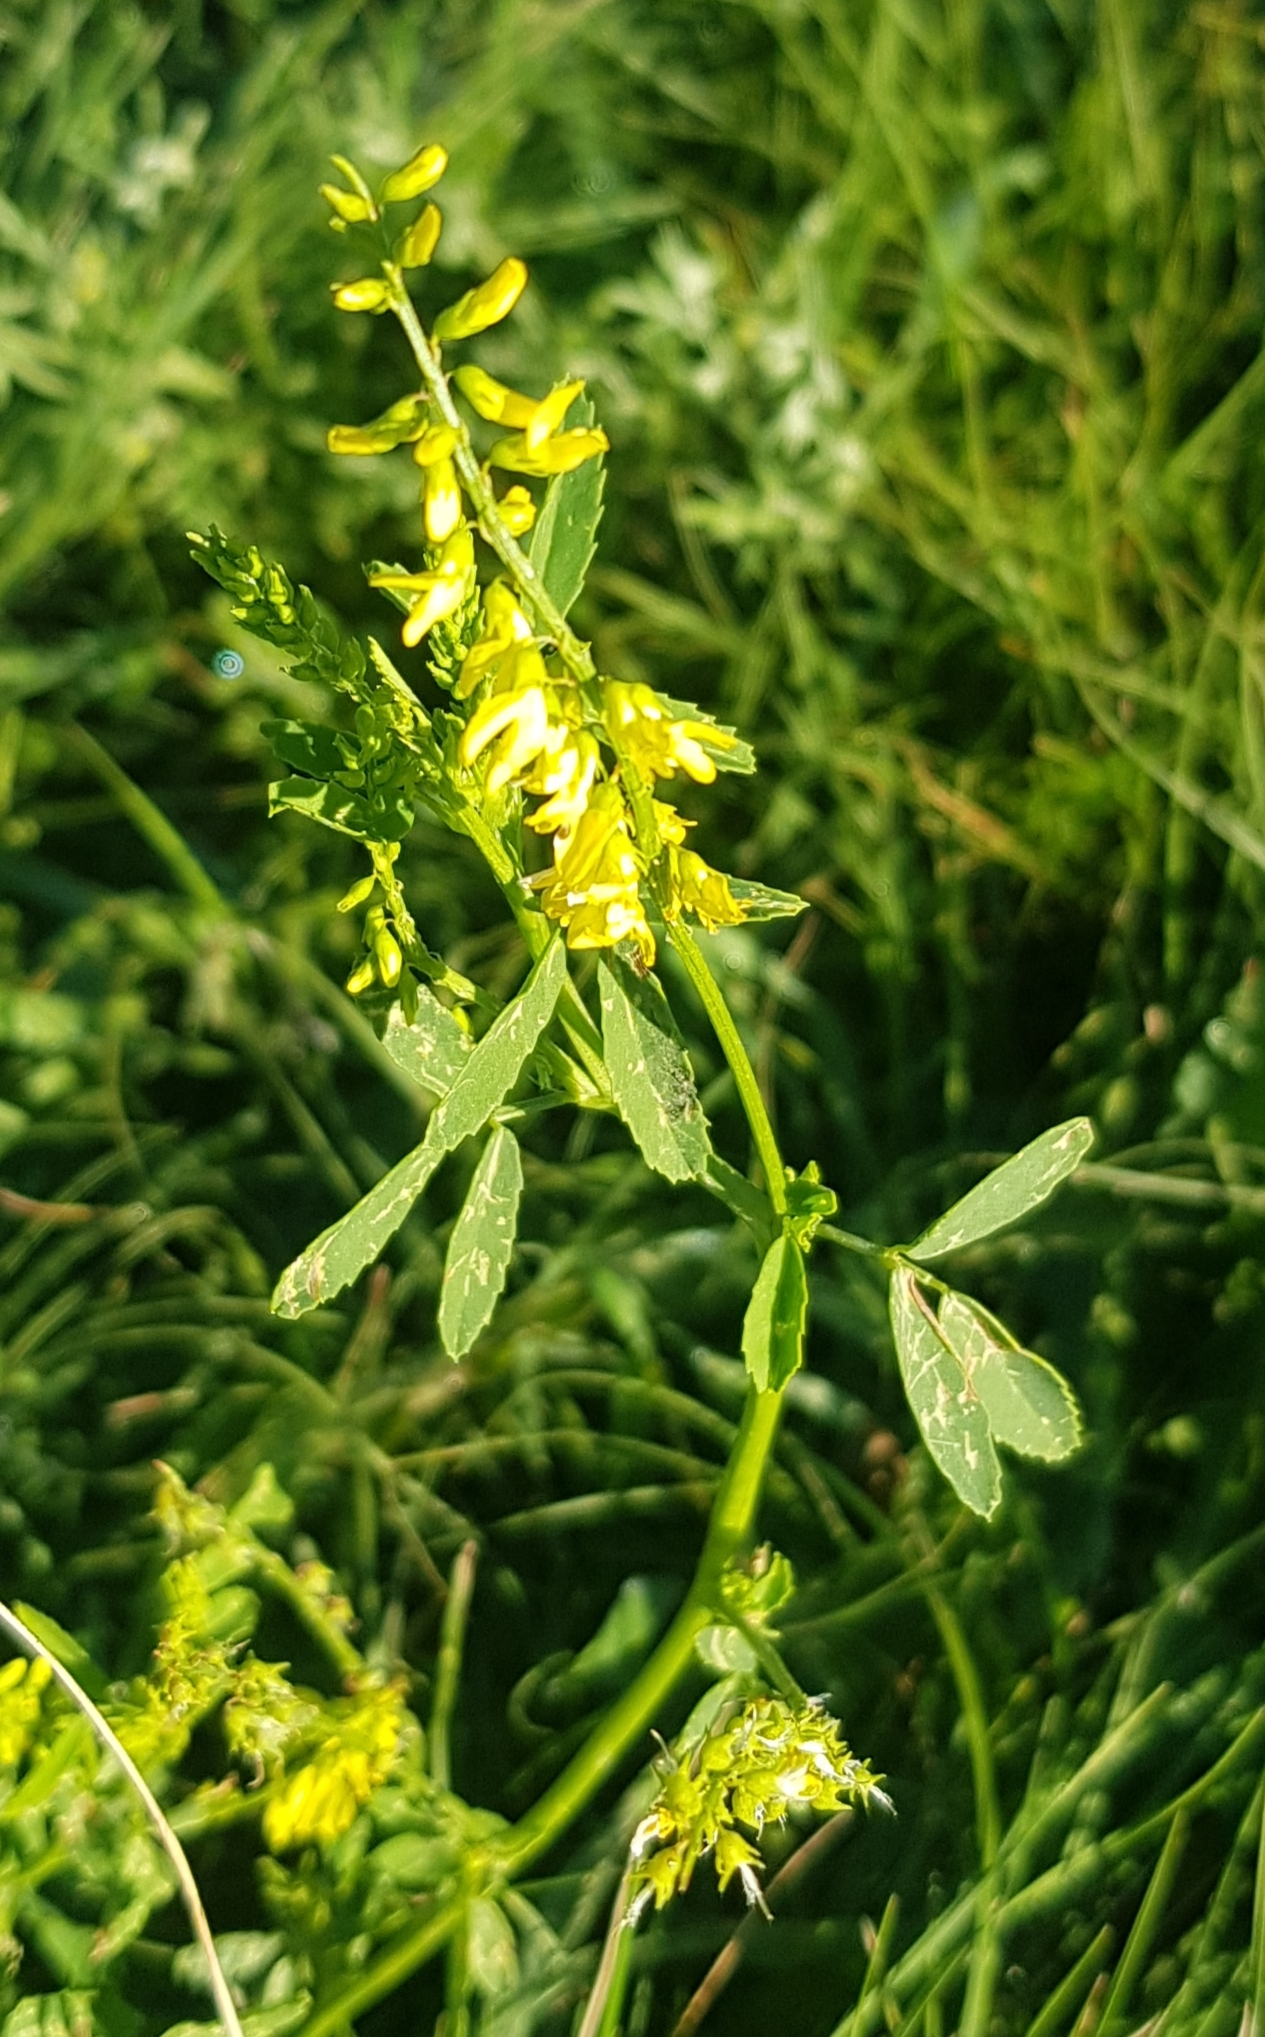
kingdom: Plantae
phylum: Tracheophyta
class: Magnoliopsida
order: Fabales
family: Fabaceae
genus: Medicago
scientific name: Medicago falcata
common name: Sickle medick
